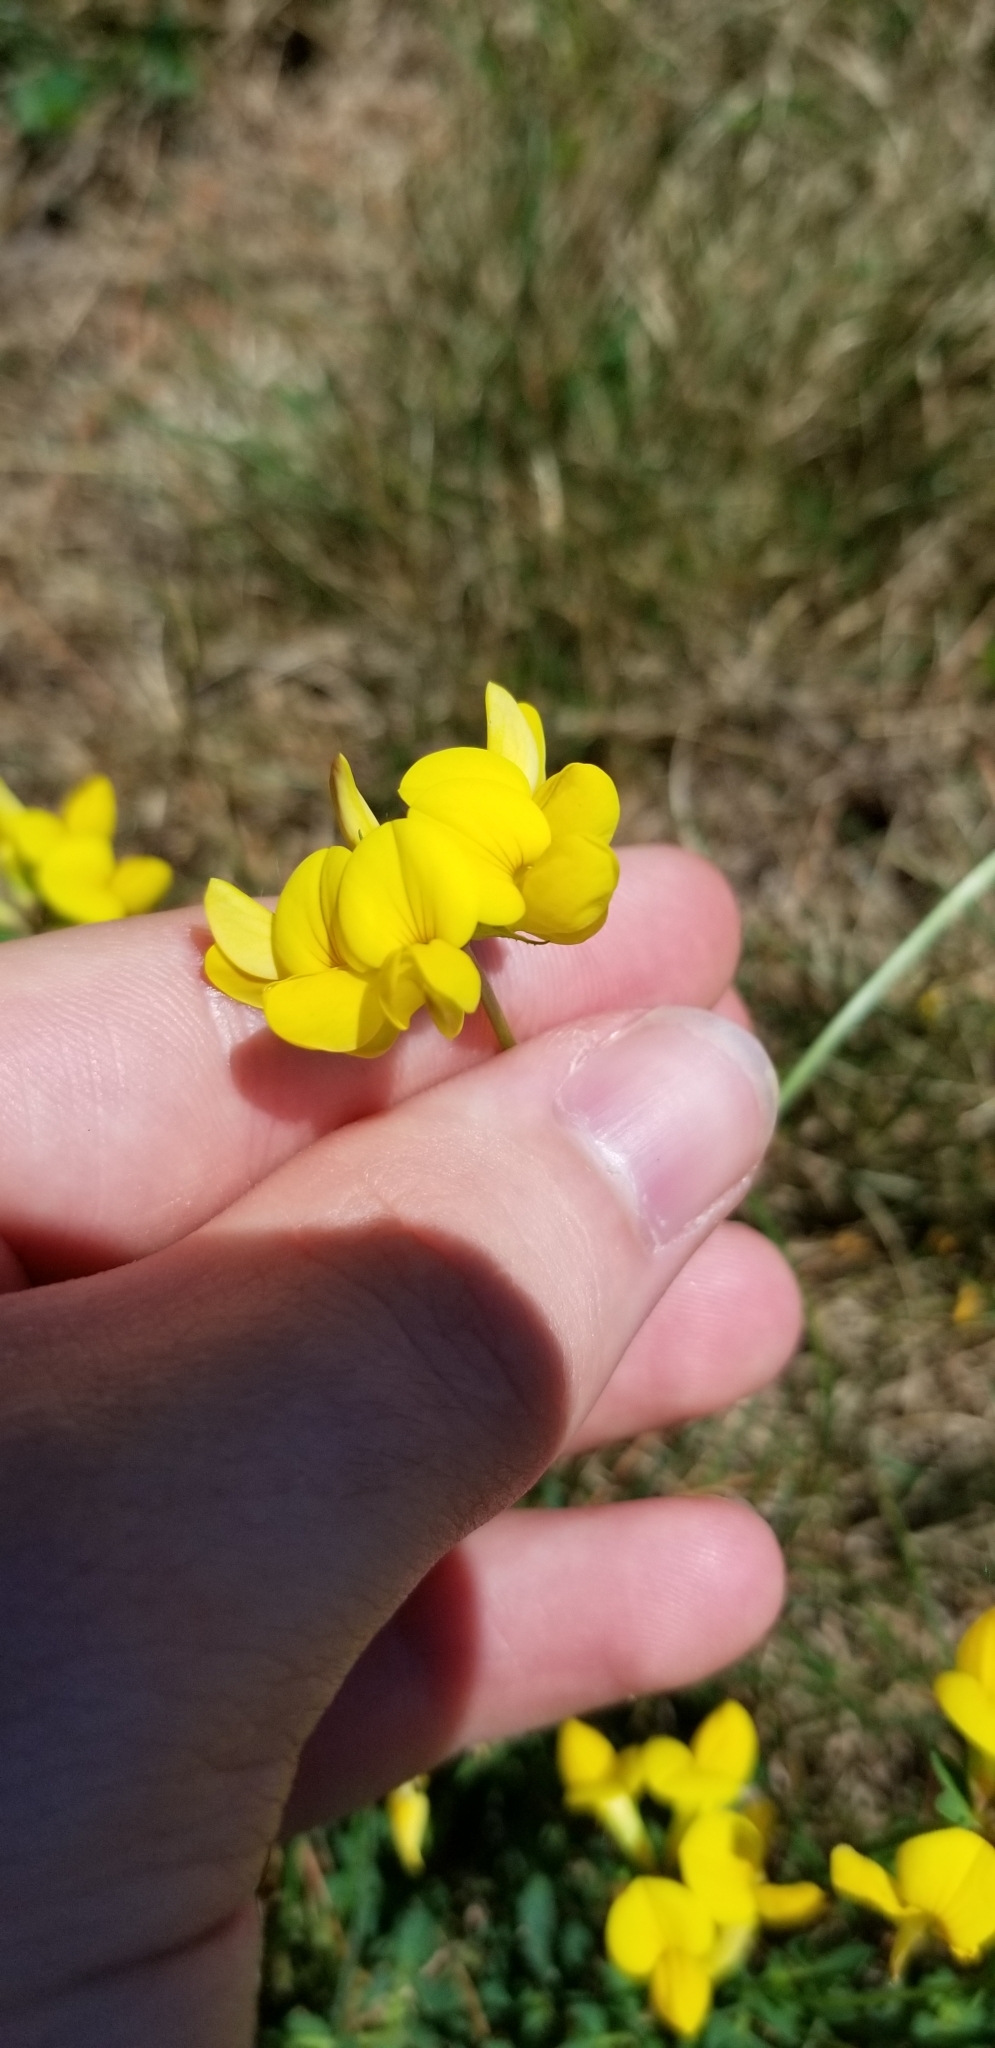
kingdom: Plantae
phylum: Tracheophyta
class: Magnoliopsida
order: Fabales
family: Fabaceae
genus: Lotus
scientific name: Lotus corniculatus
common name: Common bird's-foot-trefoil
